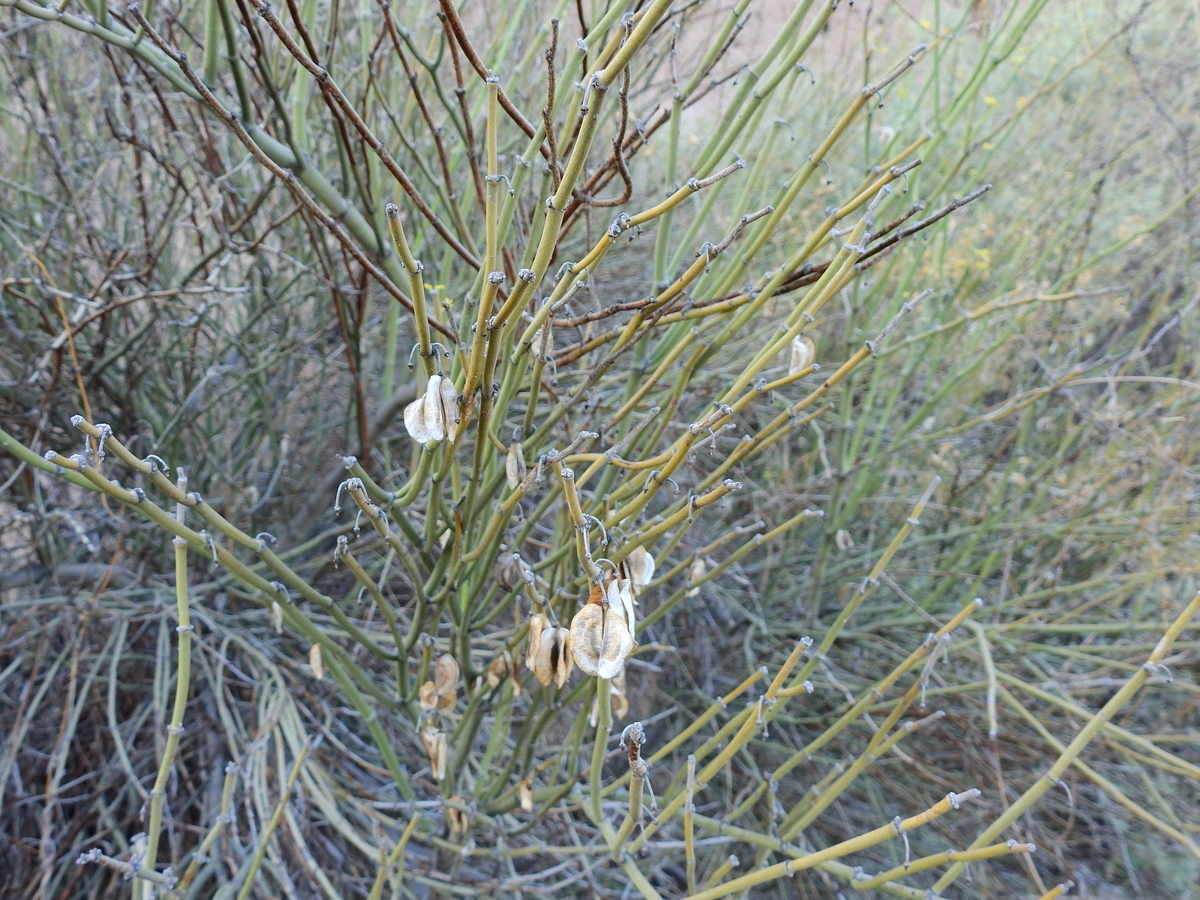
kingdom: Plantae
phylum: Tracheophyta
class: Magnoliopsida
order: Zygophyllales
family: Zygophyllaceae
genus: Bulnesia
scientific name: Bulnesia retama
